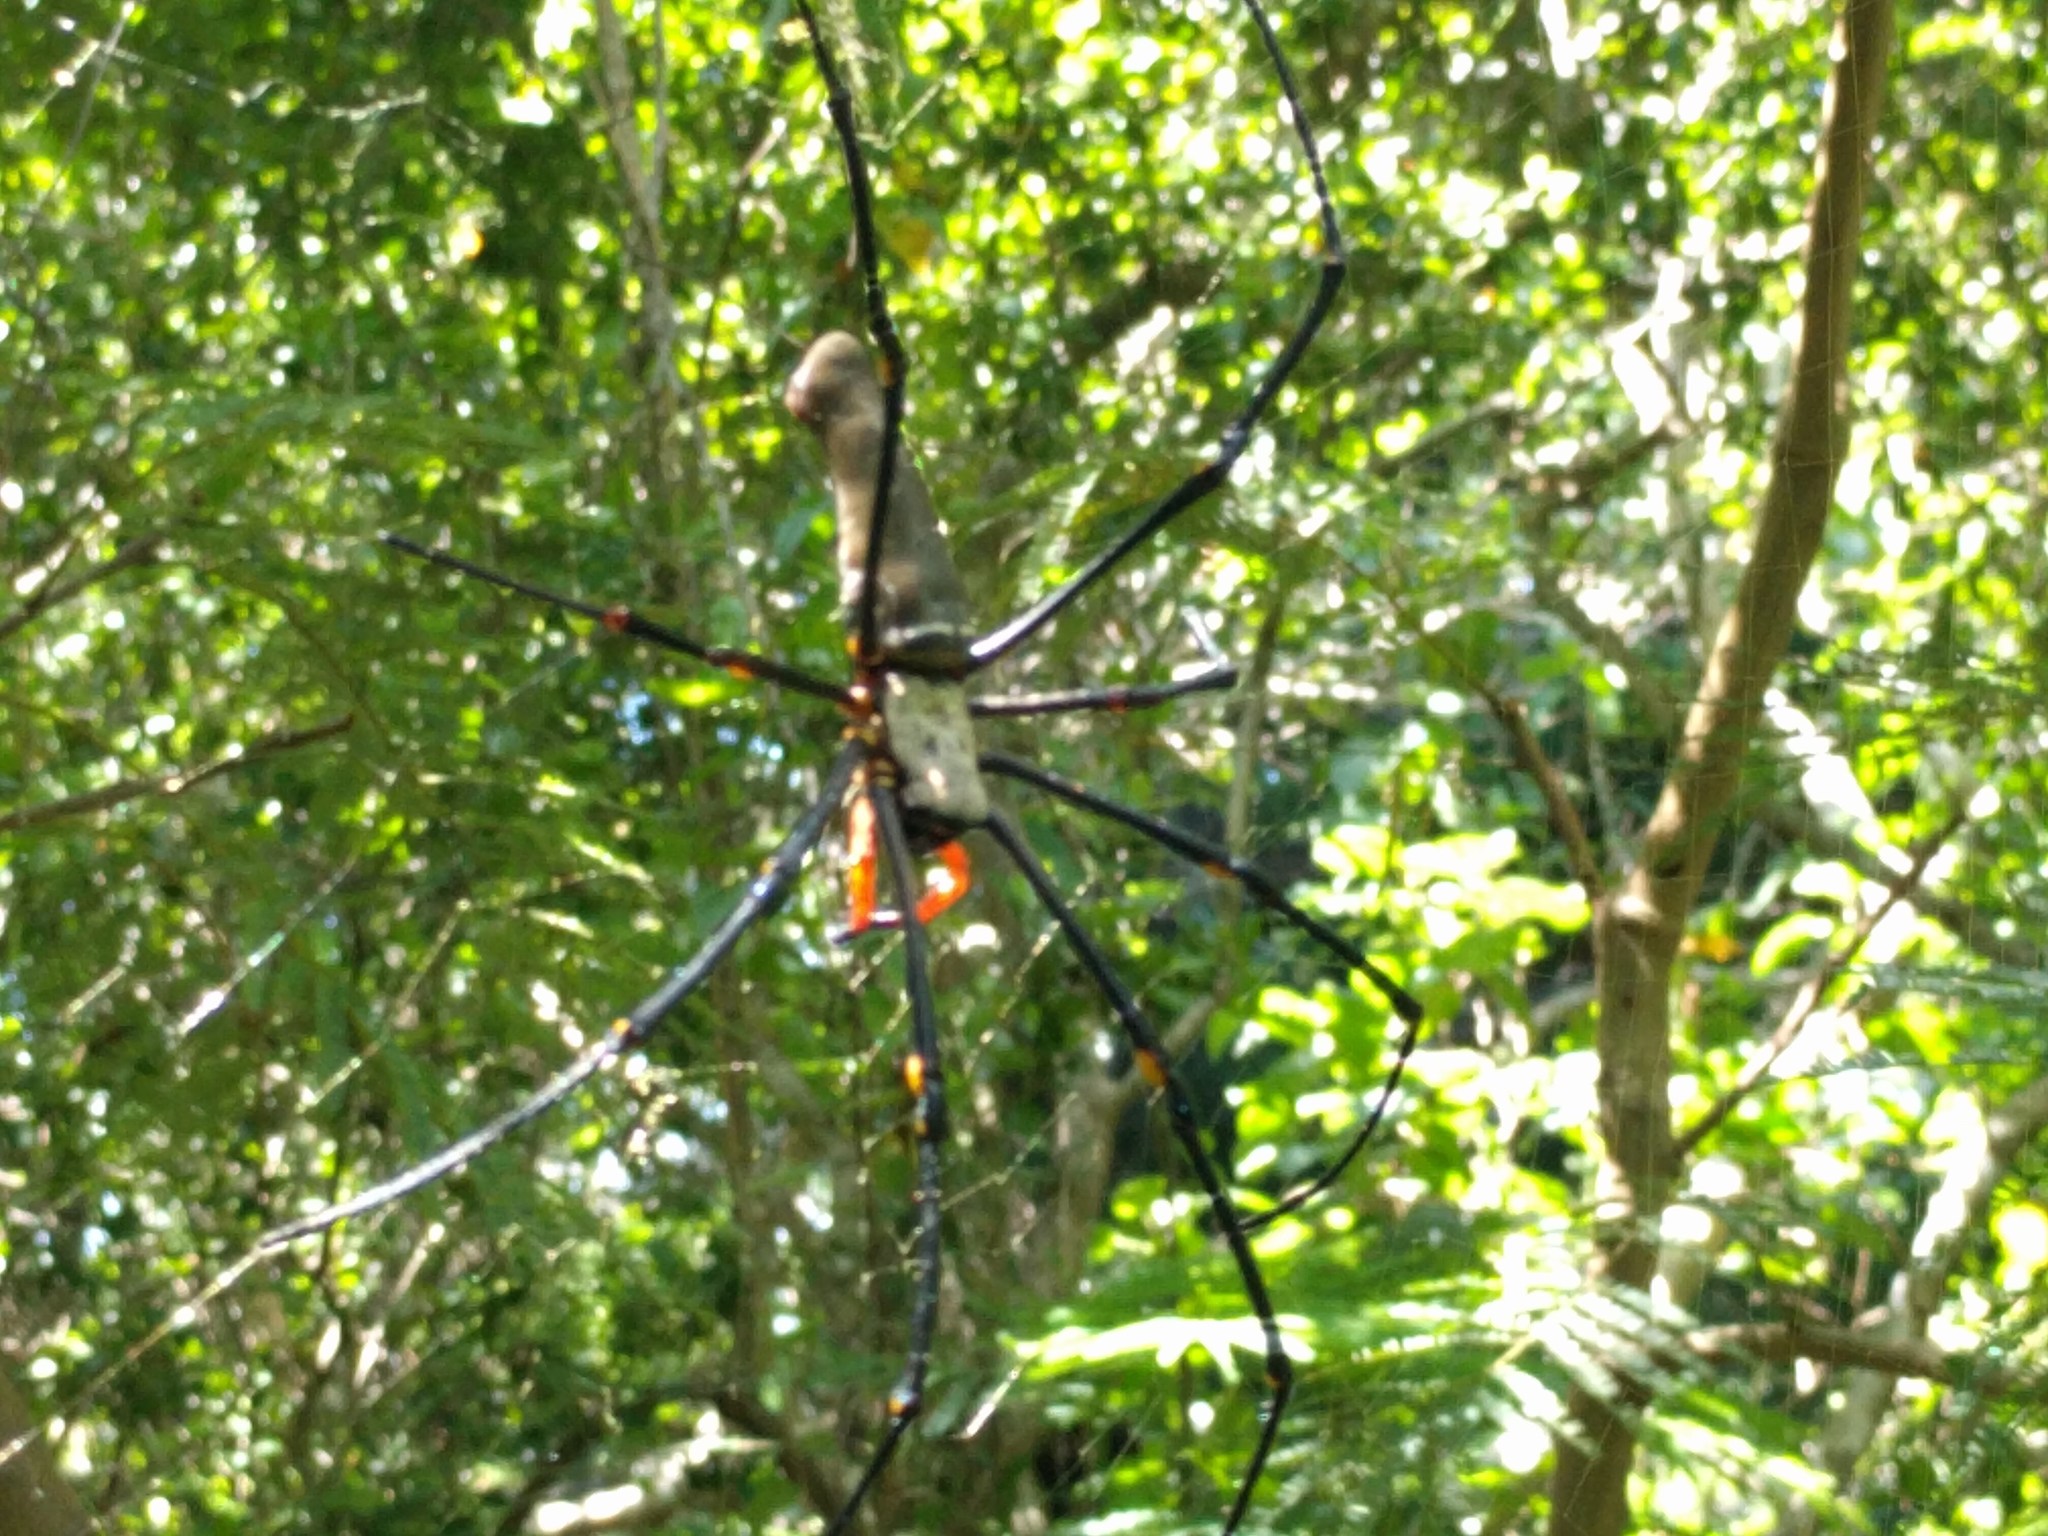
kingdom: Animalia
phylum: Arthropoda
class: Arachnida
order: Araneae
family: Araneidae
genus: Nephila
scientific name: Nephila pilipes
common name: Giant golden orb weaver
